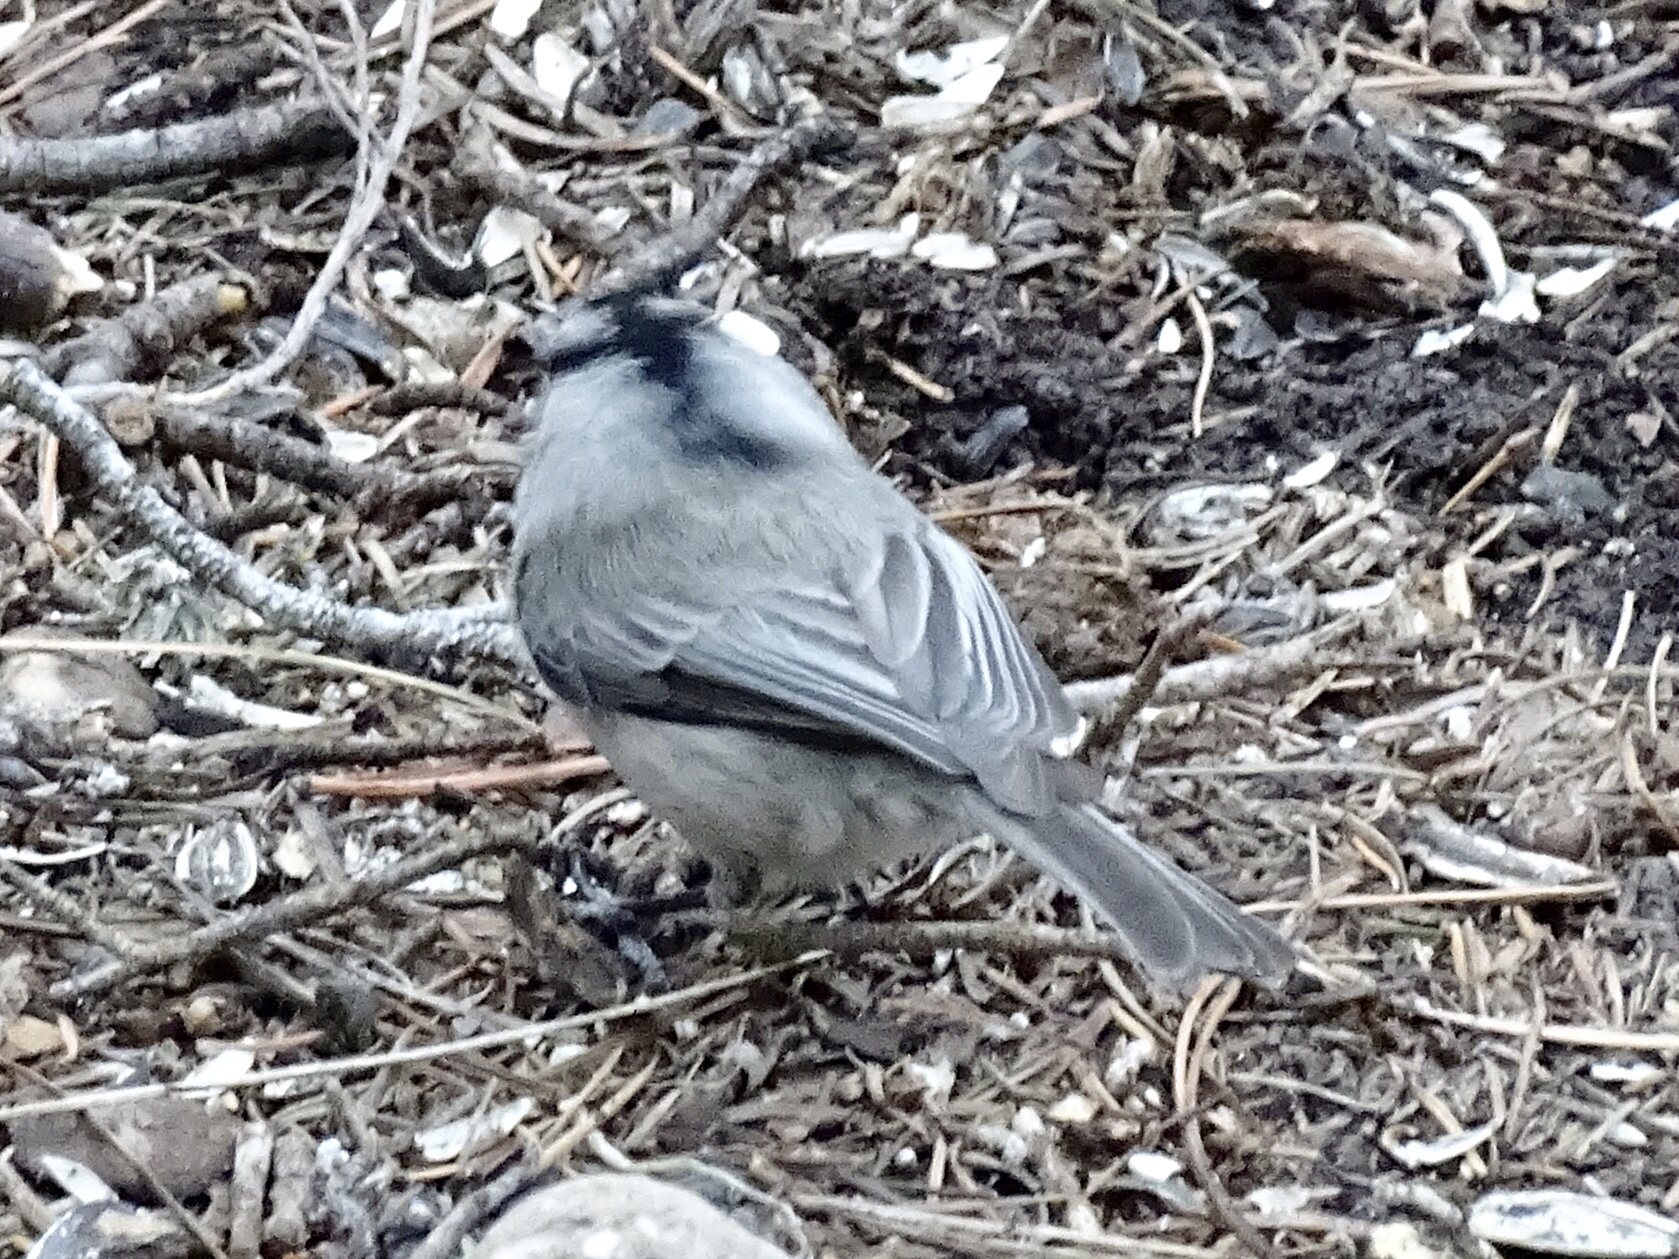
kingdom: Animalia
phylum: Chordata
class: Aves
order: Passeriformes
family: Paridae
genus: Poecile
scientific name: Poecile gambeli
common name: Mountain chickadee
